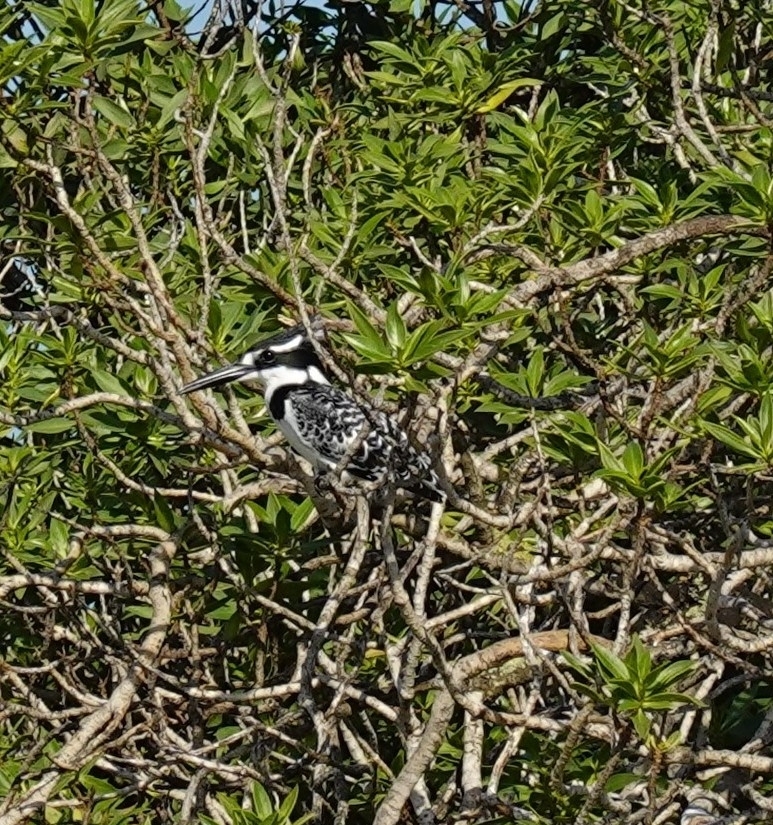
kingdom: Animalia
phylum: Chordata
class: Aves
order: Coraciiformes
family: Alcedinidae
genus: Ceryle
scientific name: Ceryle rudis
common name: Pied kingfisher
